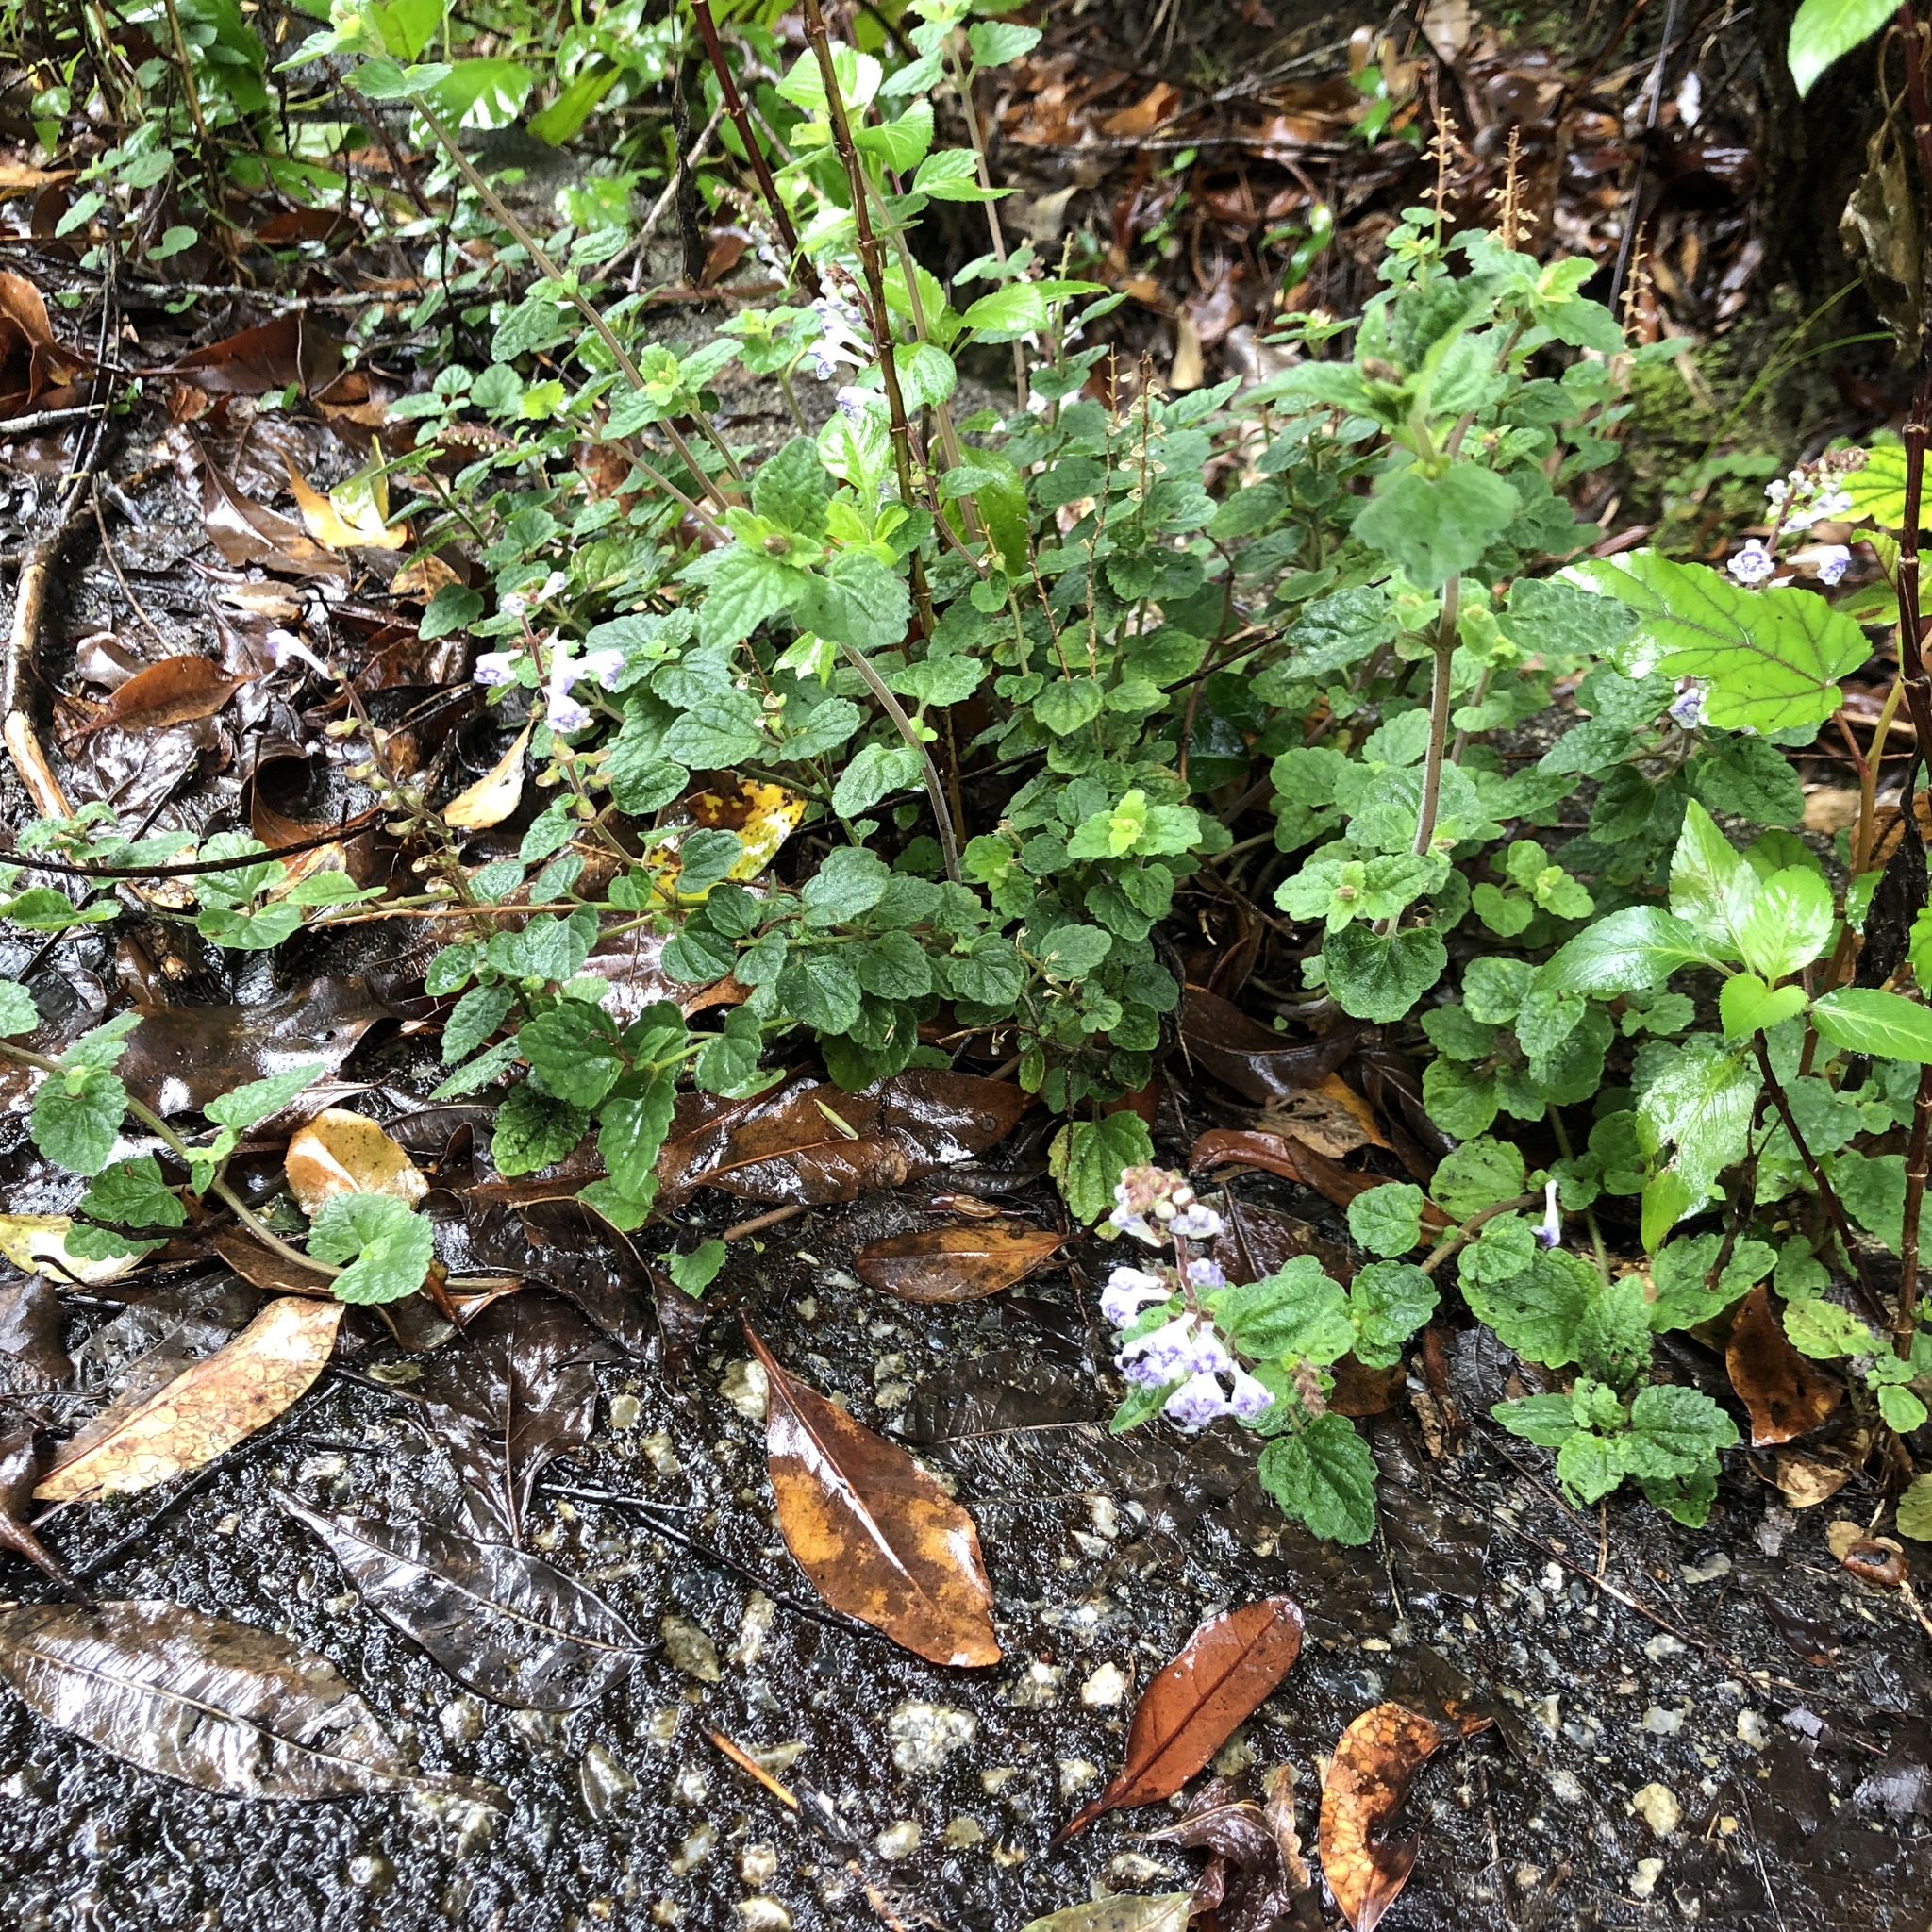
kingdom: Plantae
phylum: Tracheophyta
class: Magnoliopsida
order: Lamiales
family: Lamiaceae
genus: Scutellaria
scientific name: Scutellaria rubropunctata
